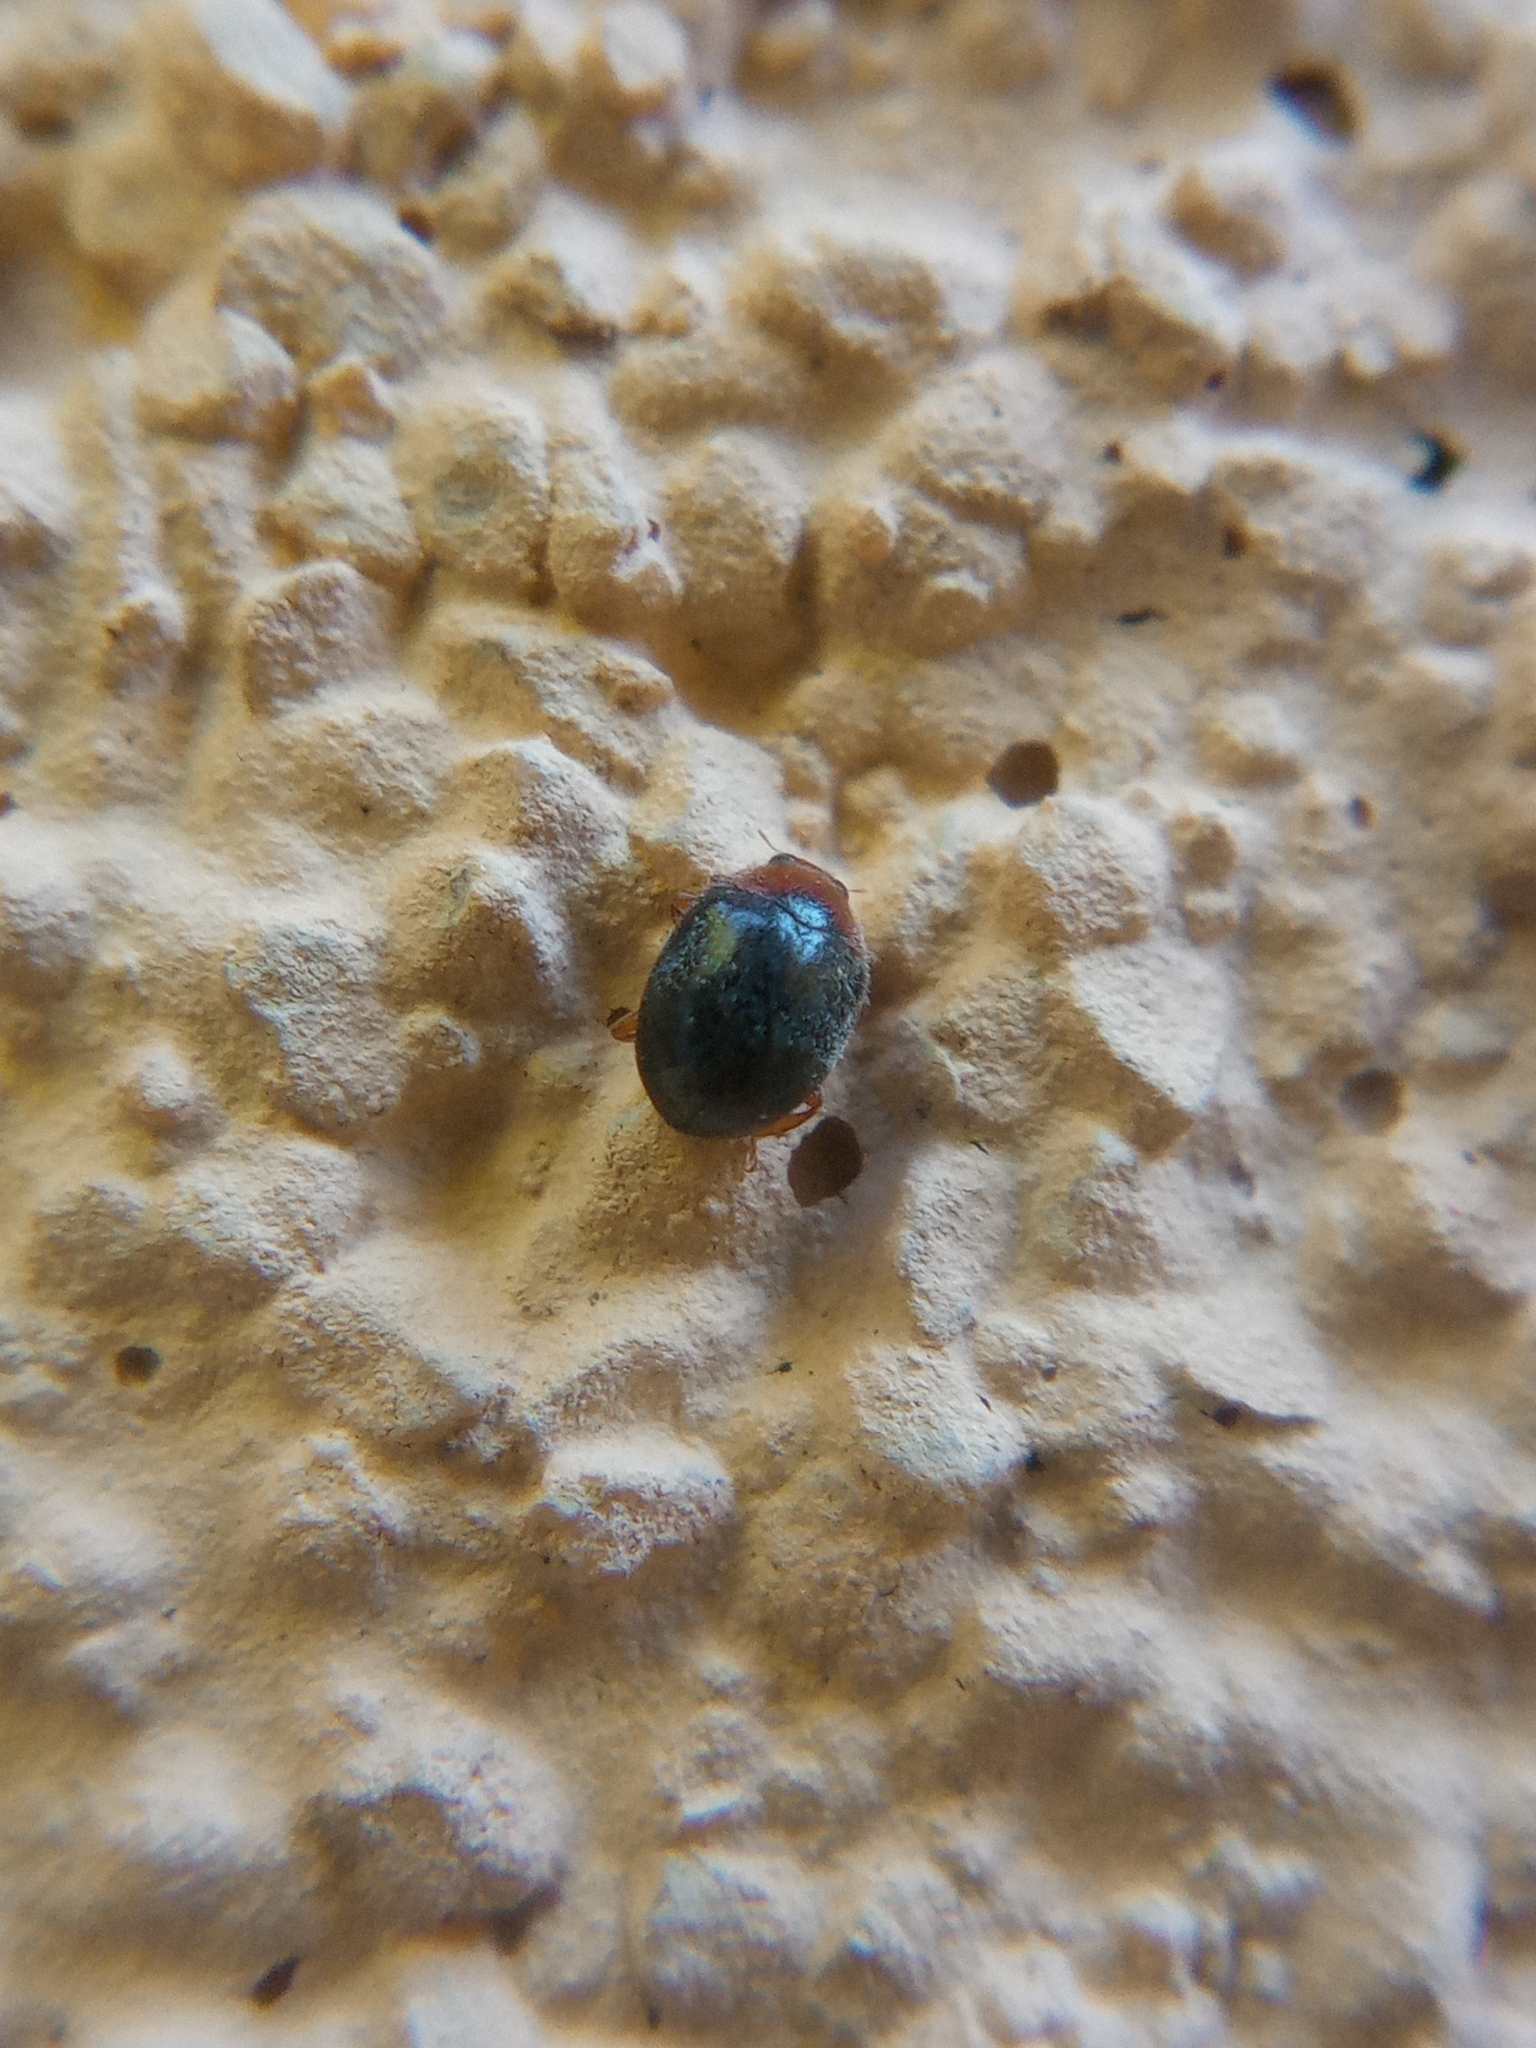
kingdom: Animalia
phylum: Arthropoda
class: Insecta
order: Coleoptera
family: Coccinellidae
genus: Scymnus
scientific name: Scymnus auritus
